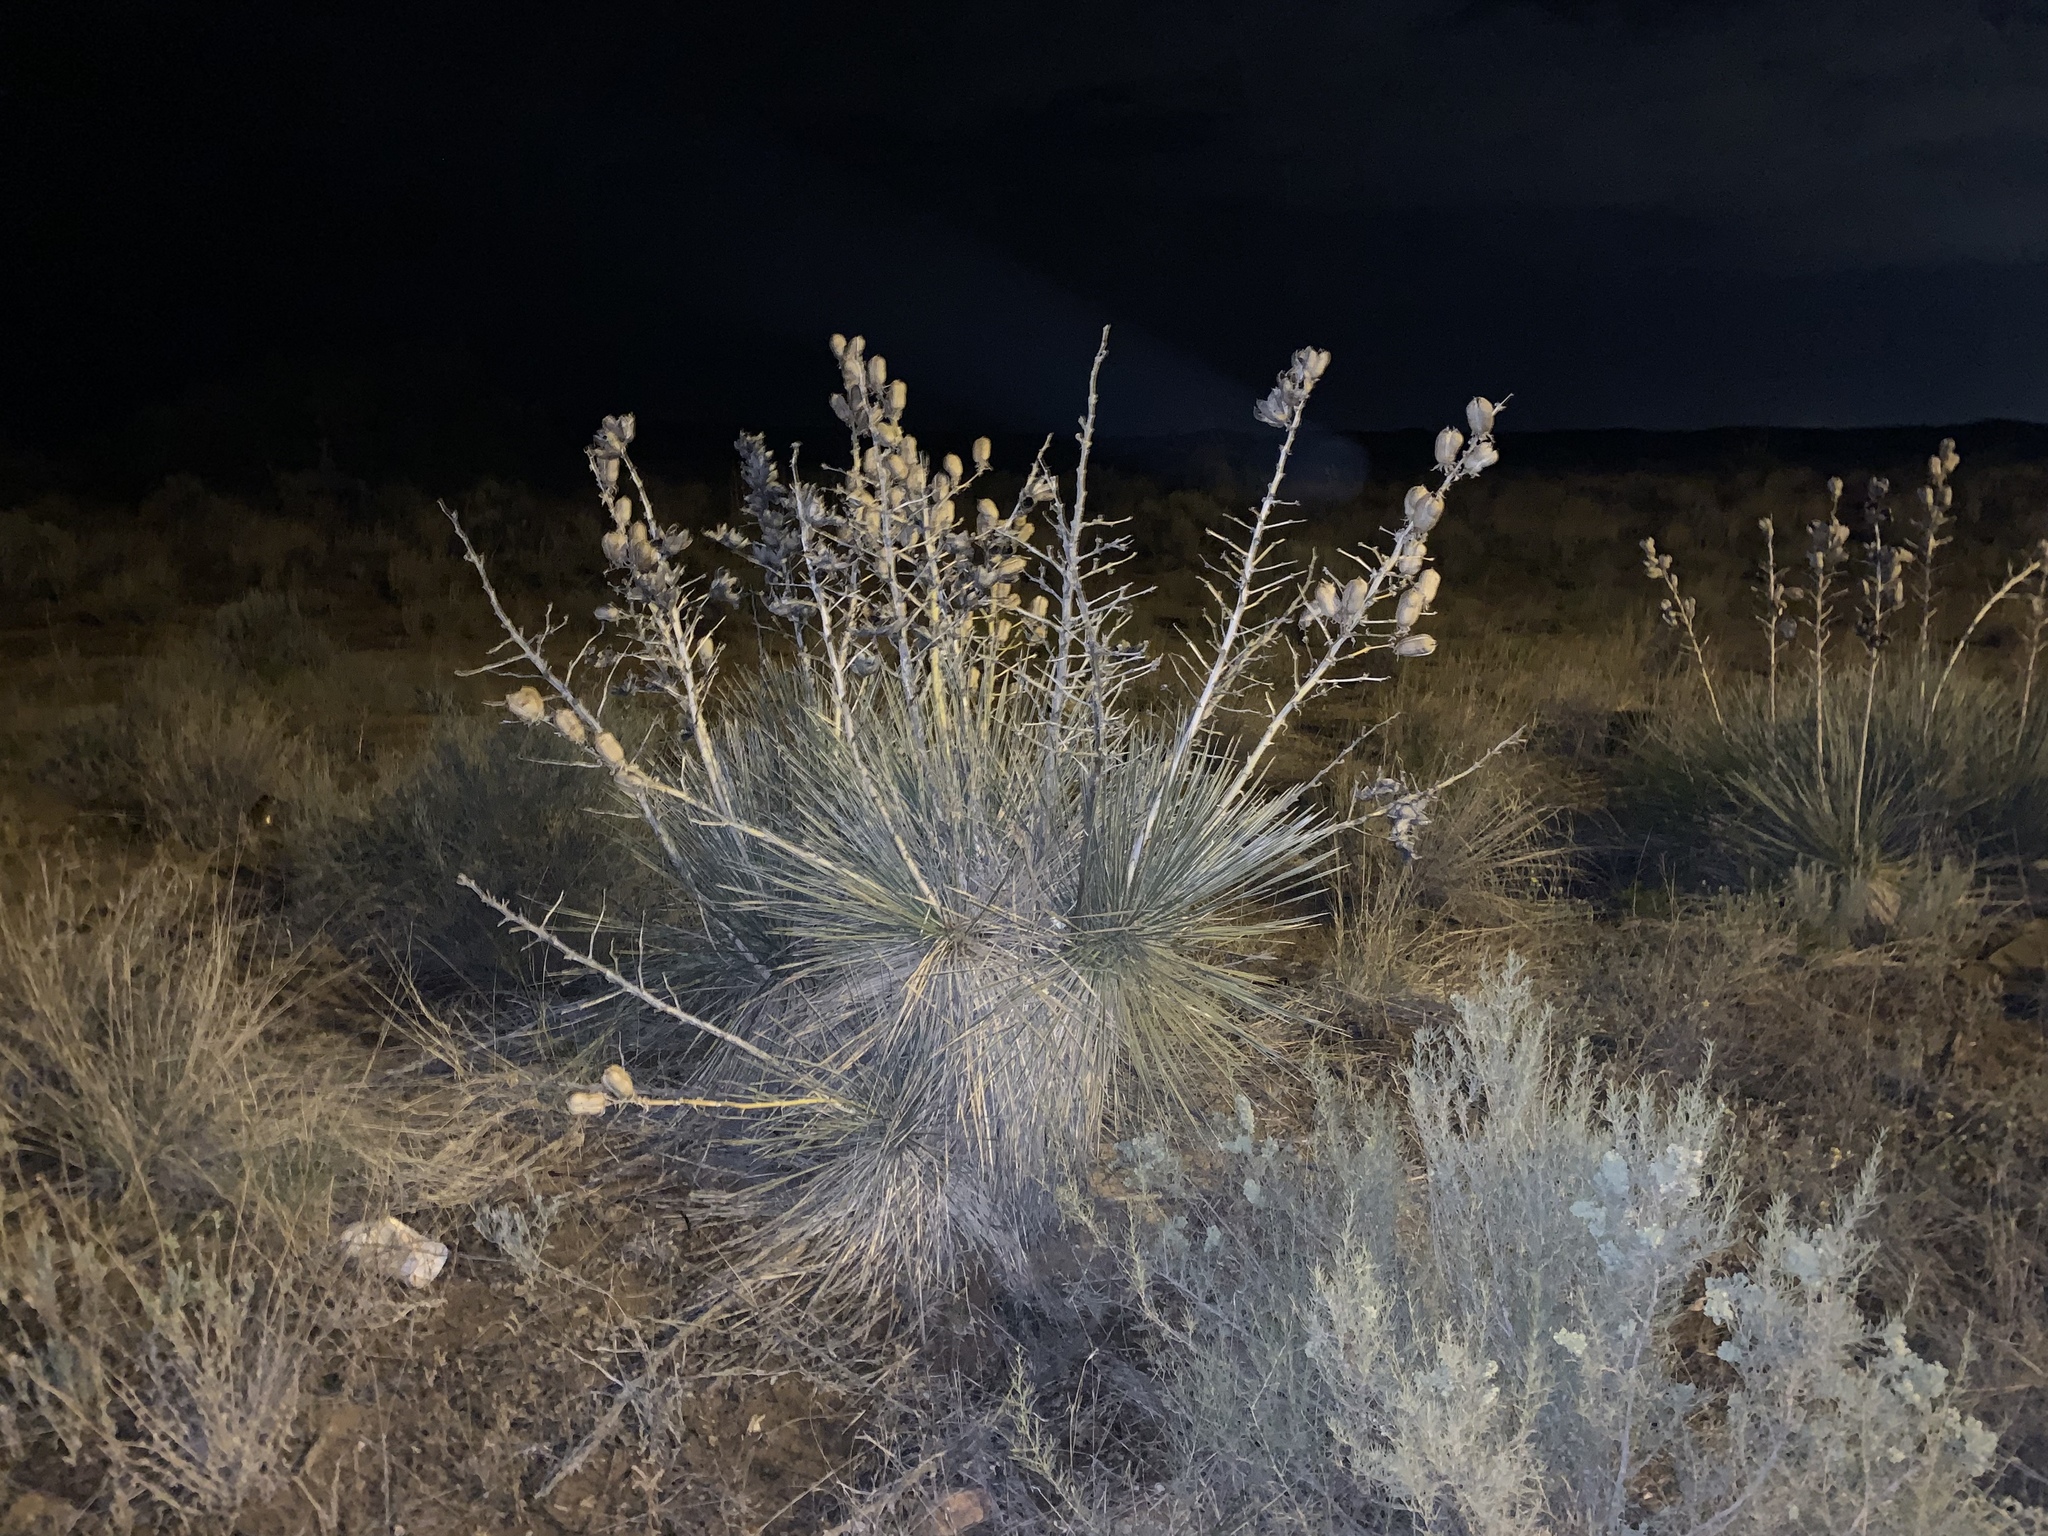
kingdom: Plantae
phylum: Tracheophyta
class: Liliopsida
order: Asparagales
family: Asparagaceae
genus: Yucca
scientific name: Yucca elata
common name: Palmella
